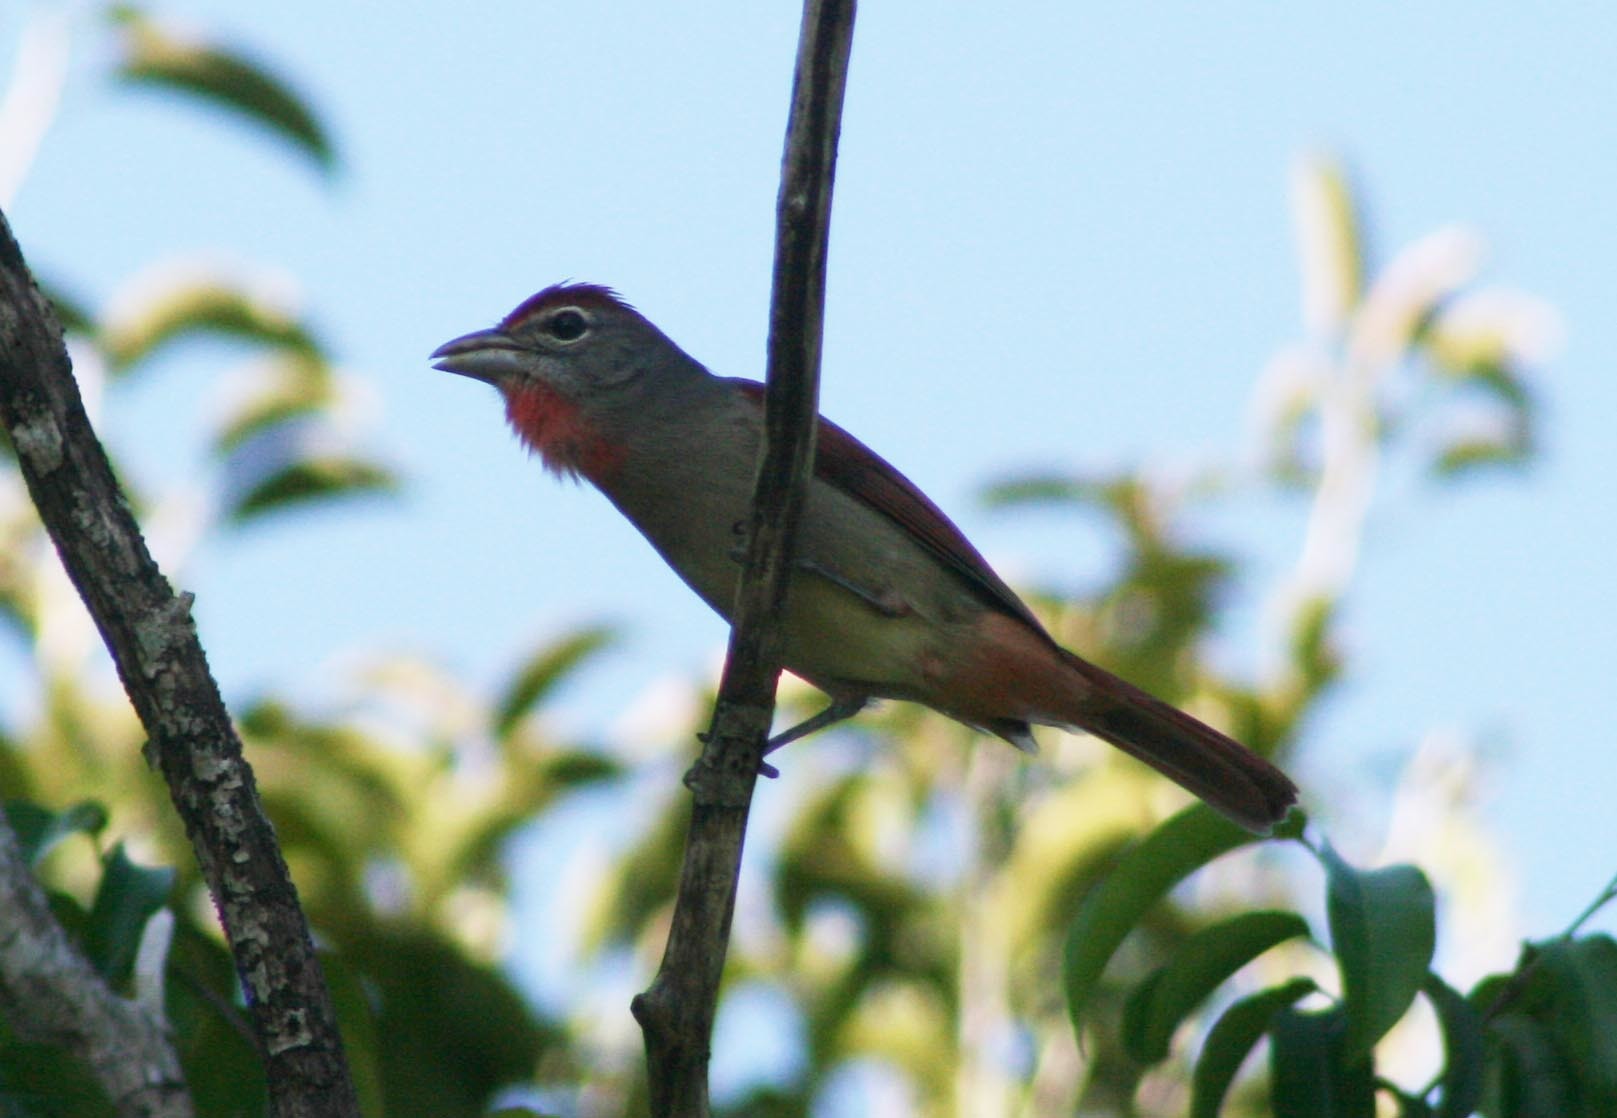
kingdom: Animalia
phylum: Chordata
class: Aves
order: Passeriformes
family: Cardinalidae
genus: Piranga
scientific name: Piranga roseogularis
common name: Rose-throated tanager
